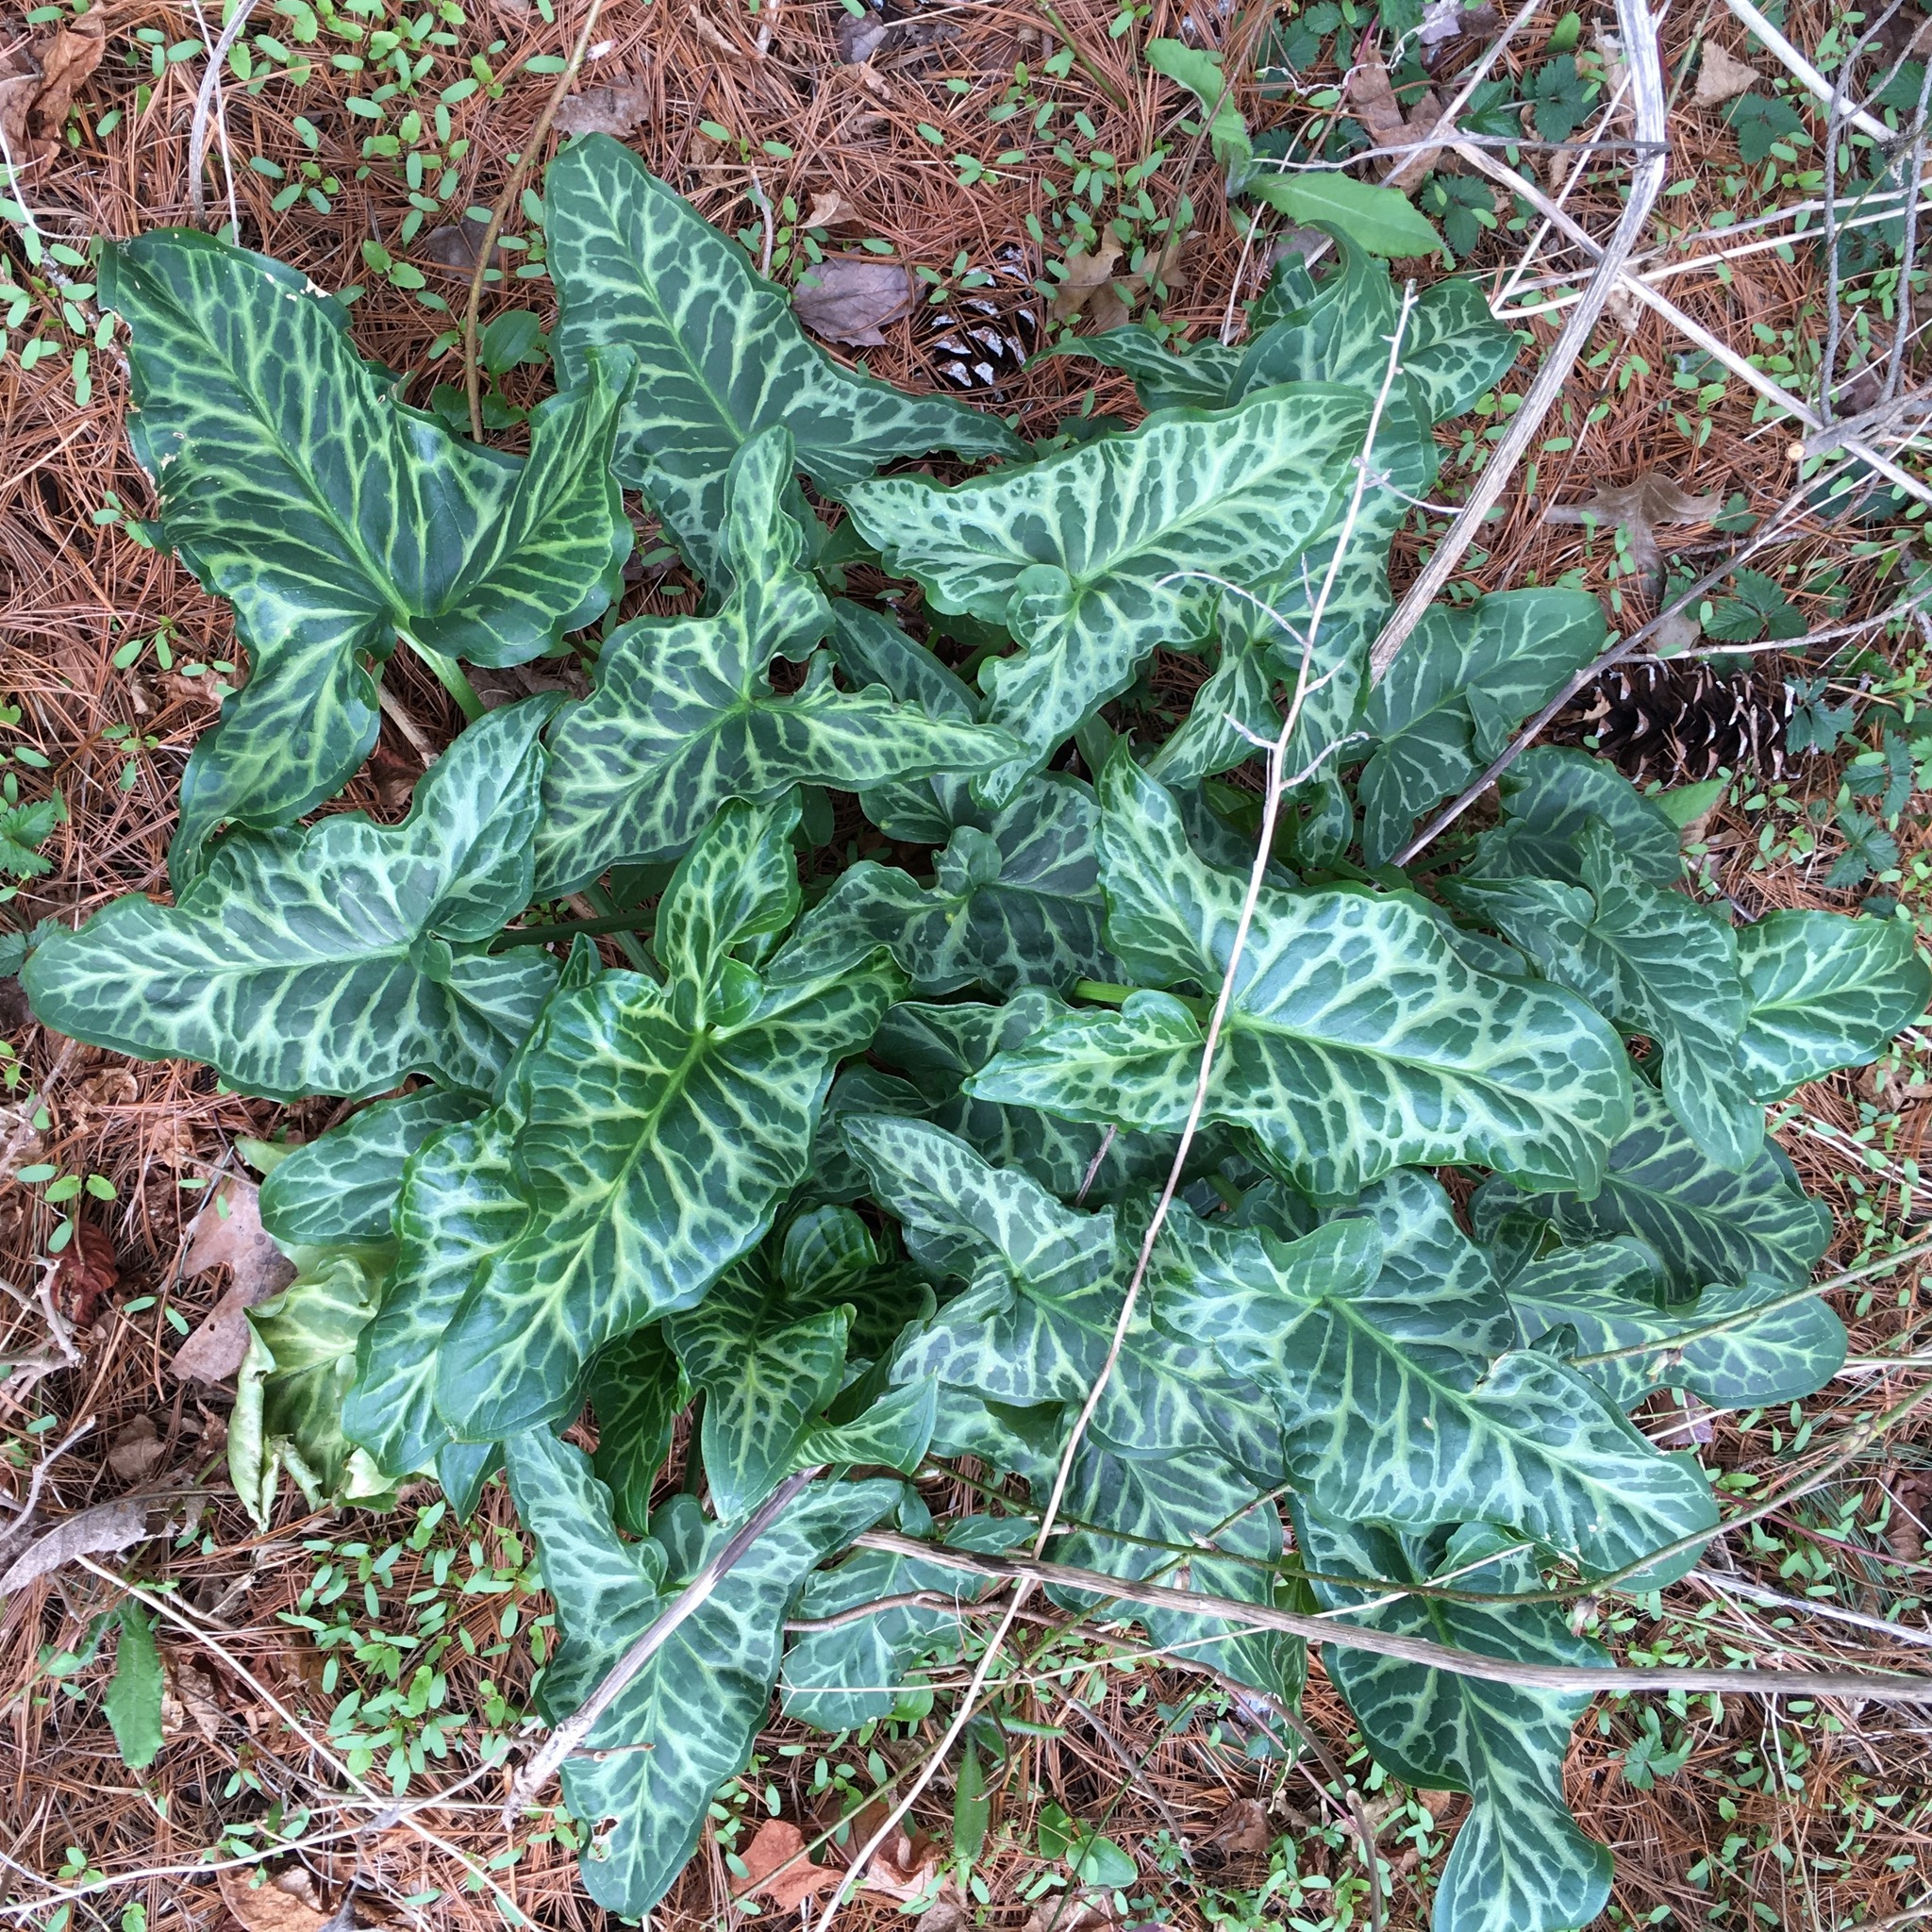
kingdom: Plantae
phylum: Tracheophyta
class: Liliopsida
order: Alismatales
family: Araceae
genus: Arum
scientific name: Arum italicum
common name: Italian lords-and-ladies
